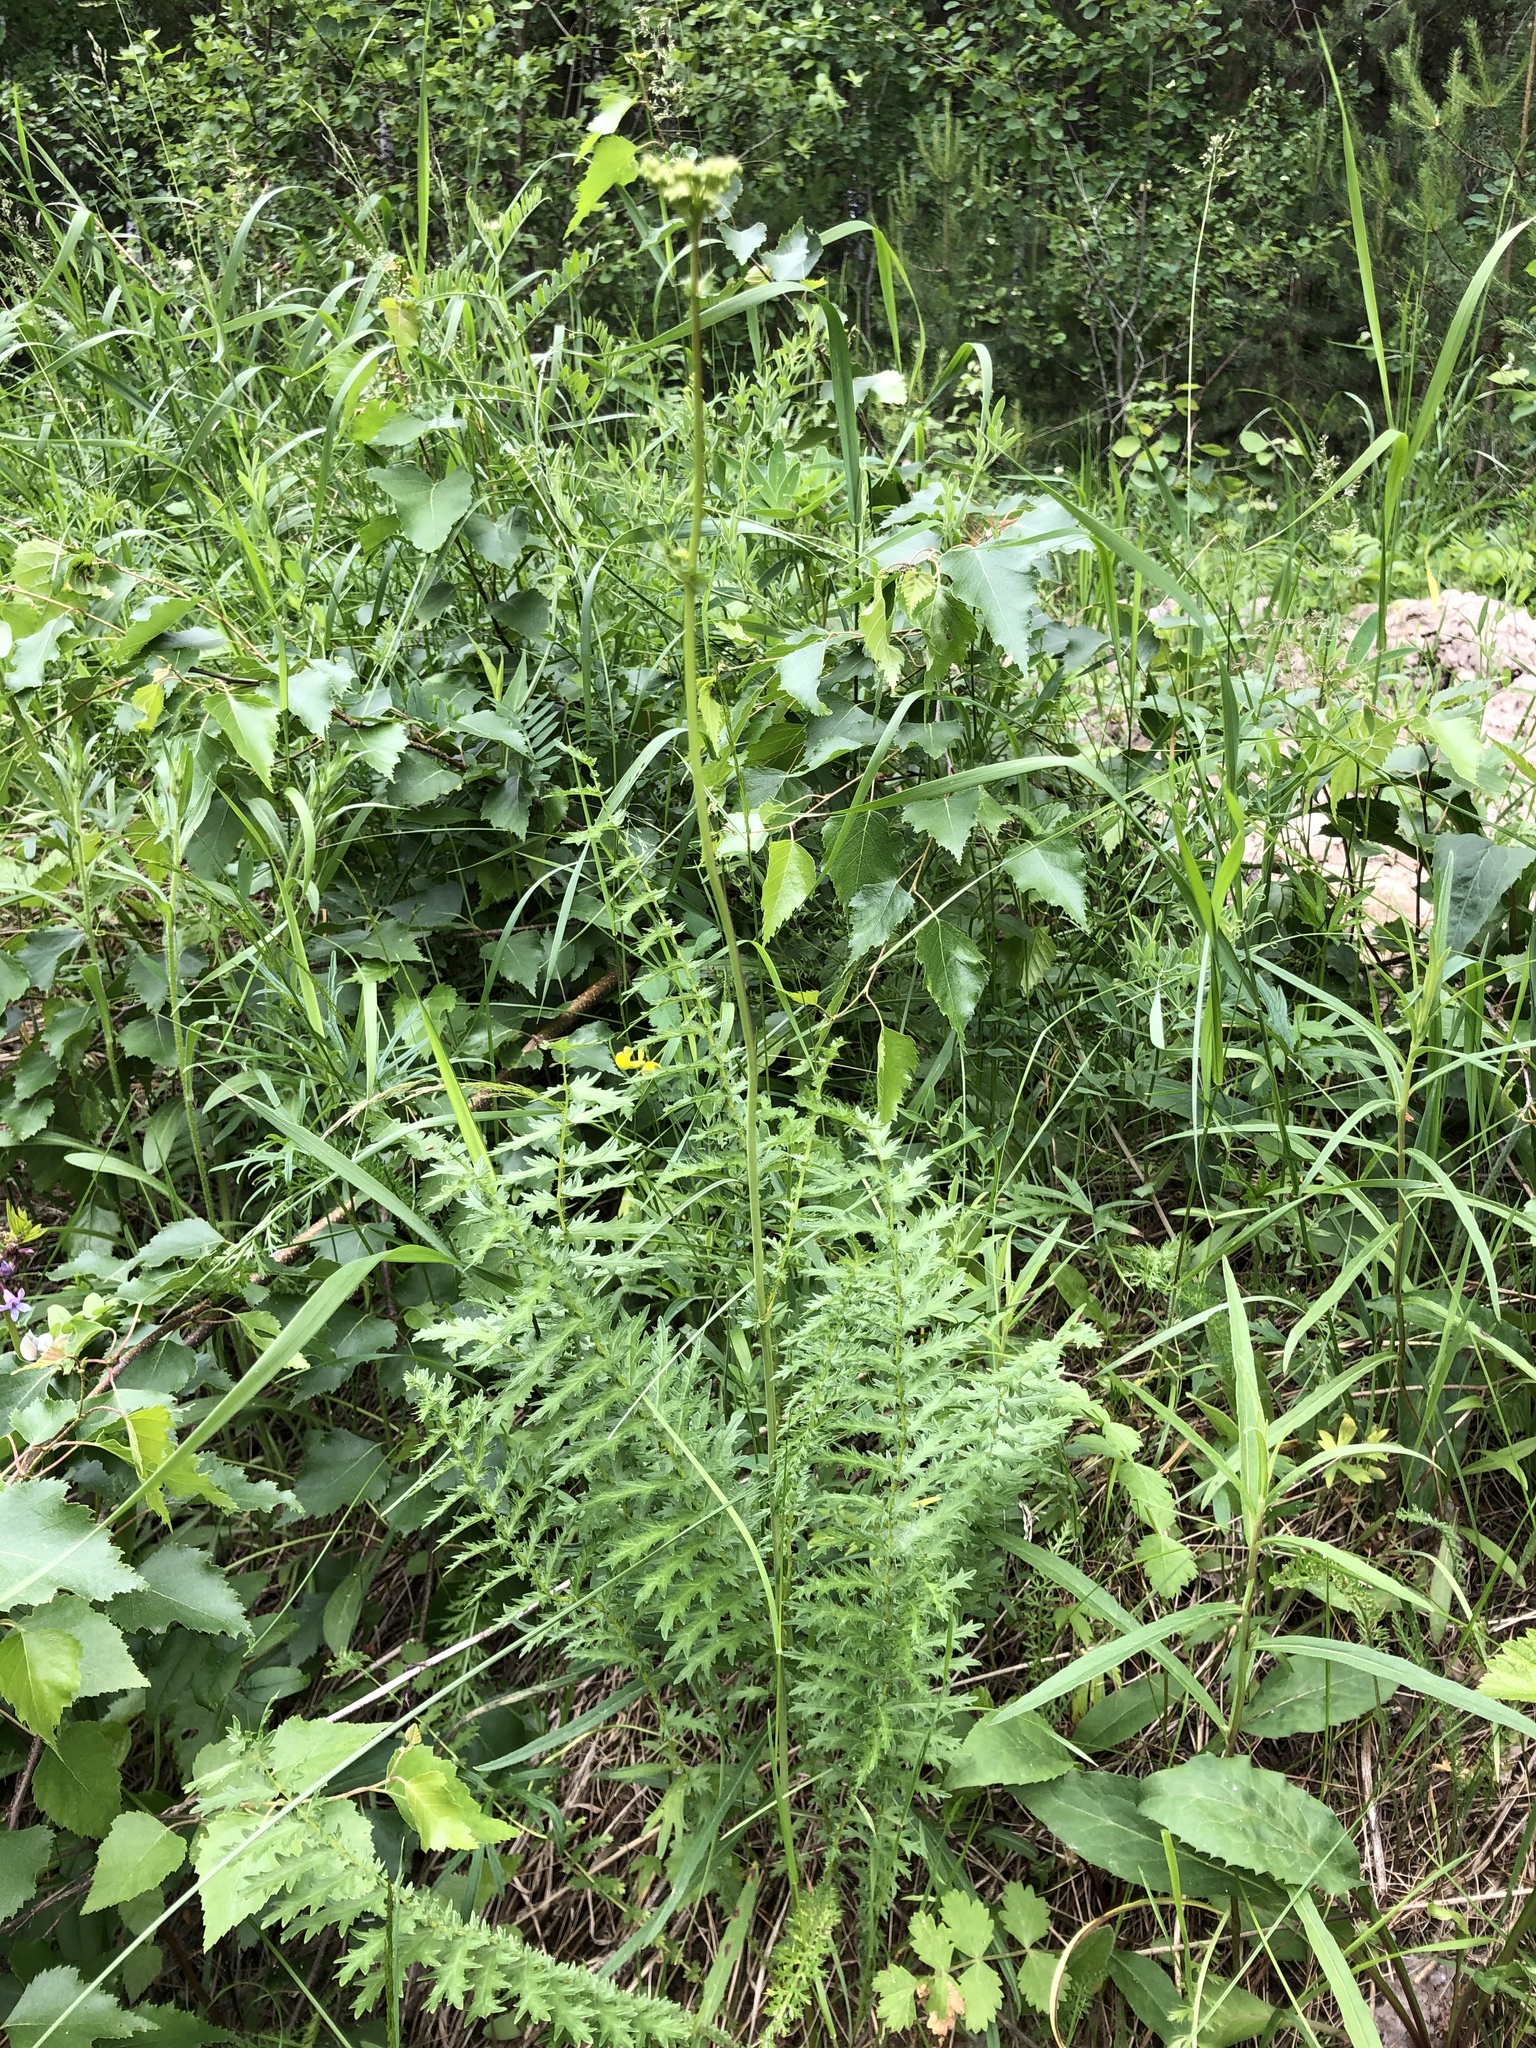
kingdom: Plantae
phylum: Tracheophyta
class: Magnoliopsida
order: Rosales
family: Rosaceae
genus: Filipendula
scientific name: Filipendula vulgaris
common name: Dropwort
